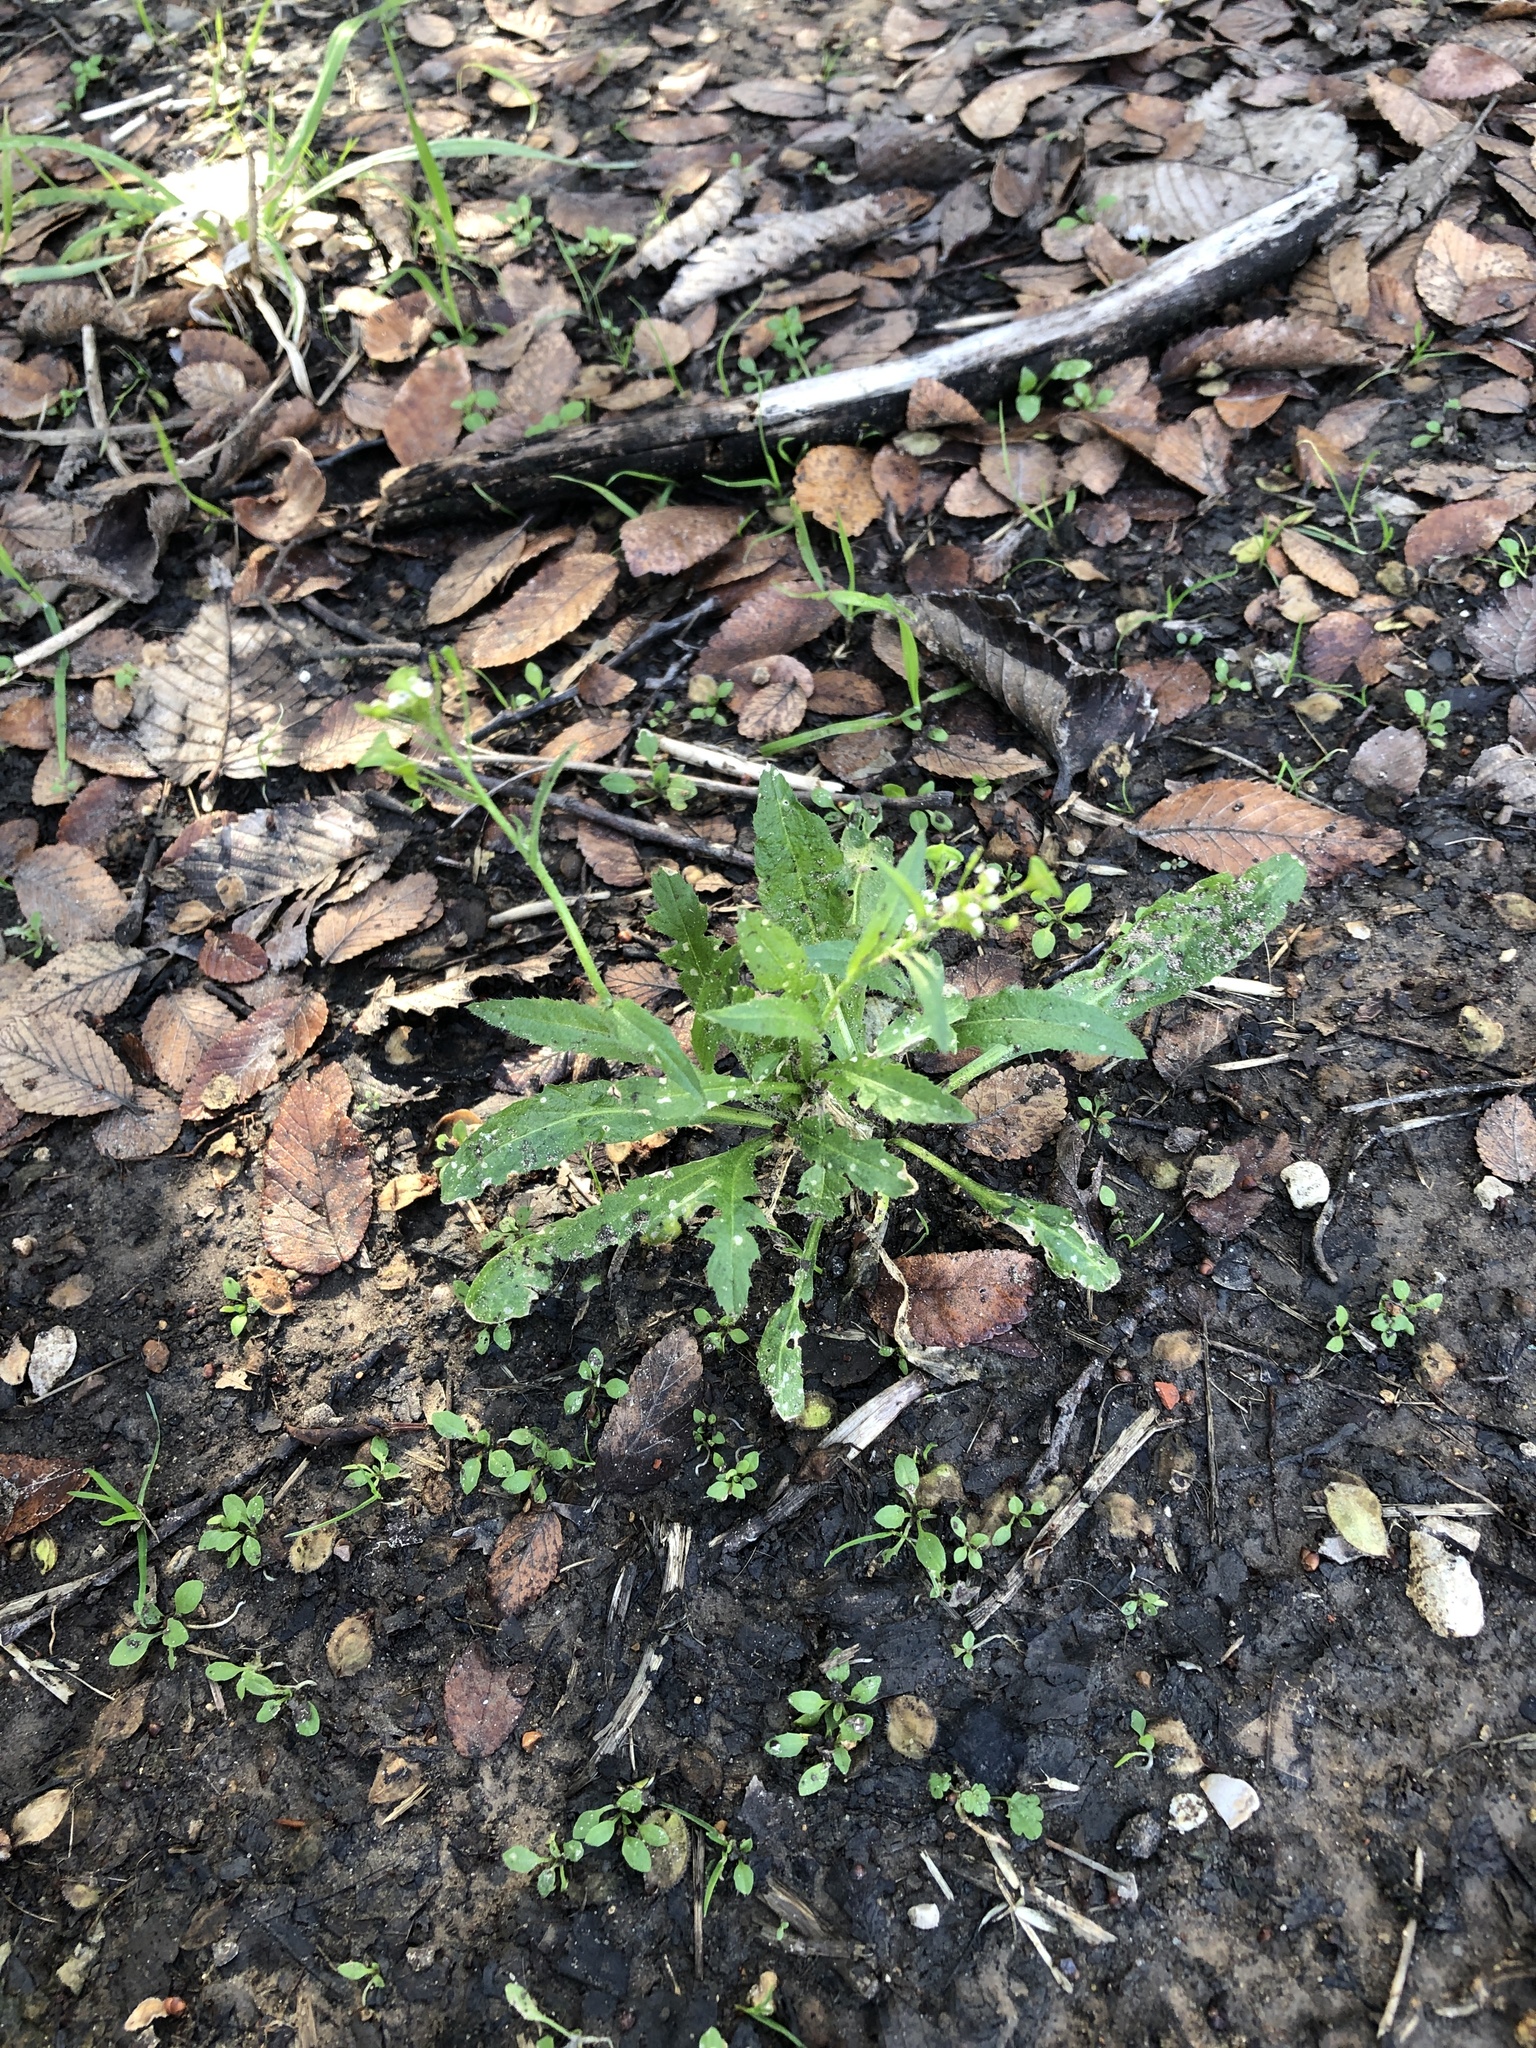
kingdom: Plantae
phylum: Tracheophyta
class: Magnoliopsida
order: Brassicales
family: Brassicaceae
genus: Capsella
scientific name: Capsella bursa-pastoris
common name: Shepherd's purse
